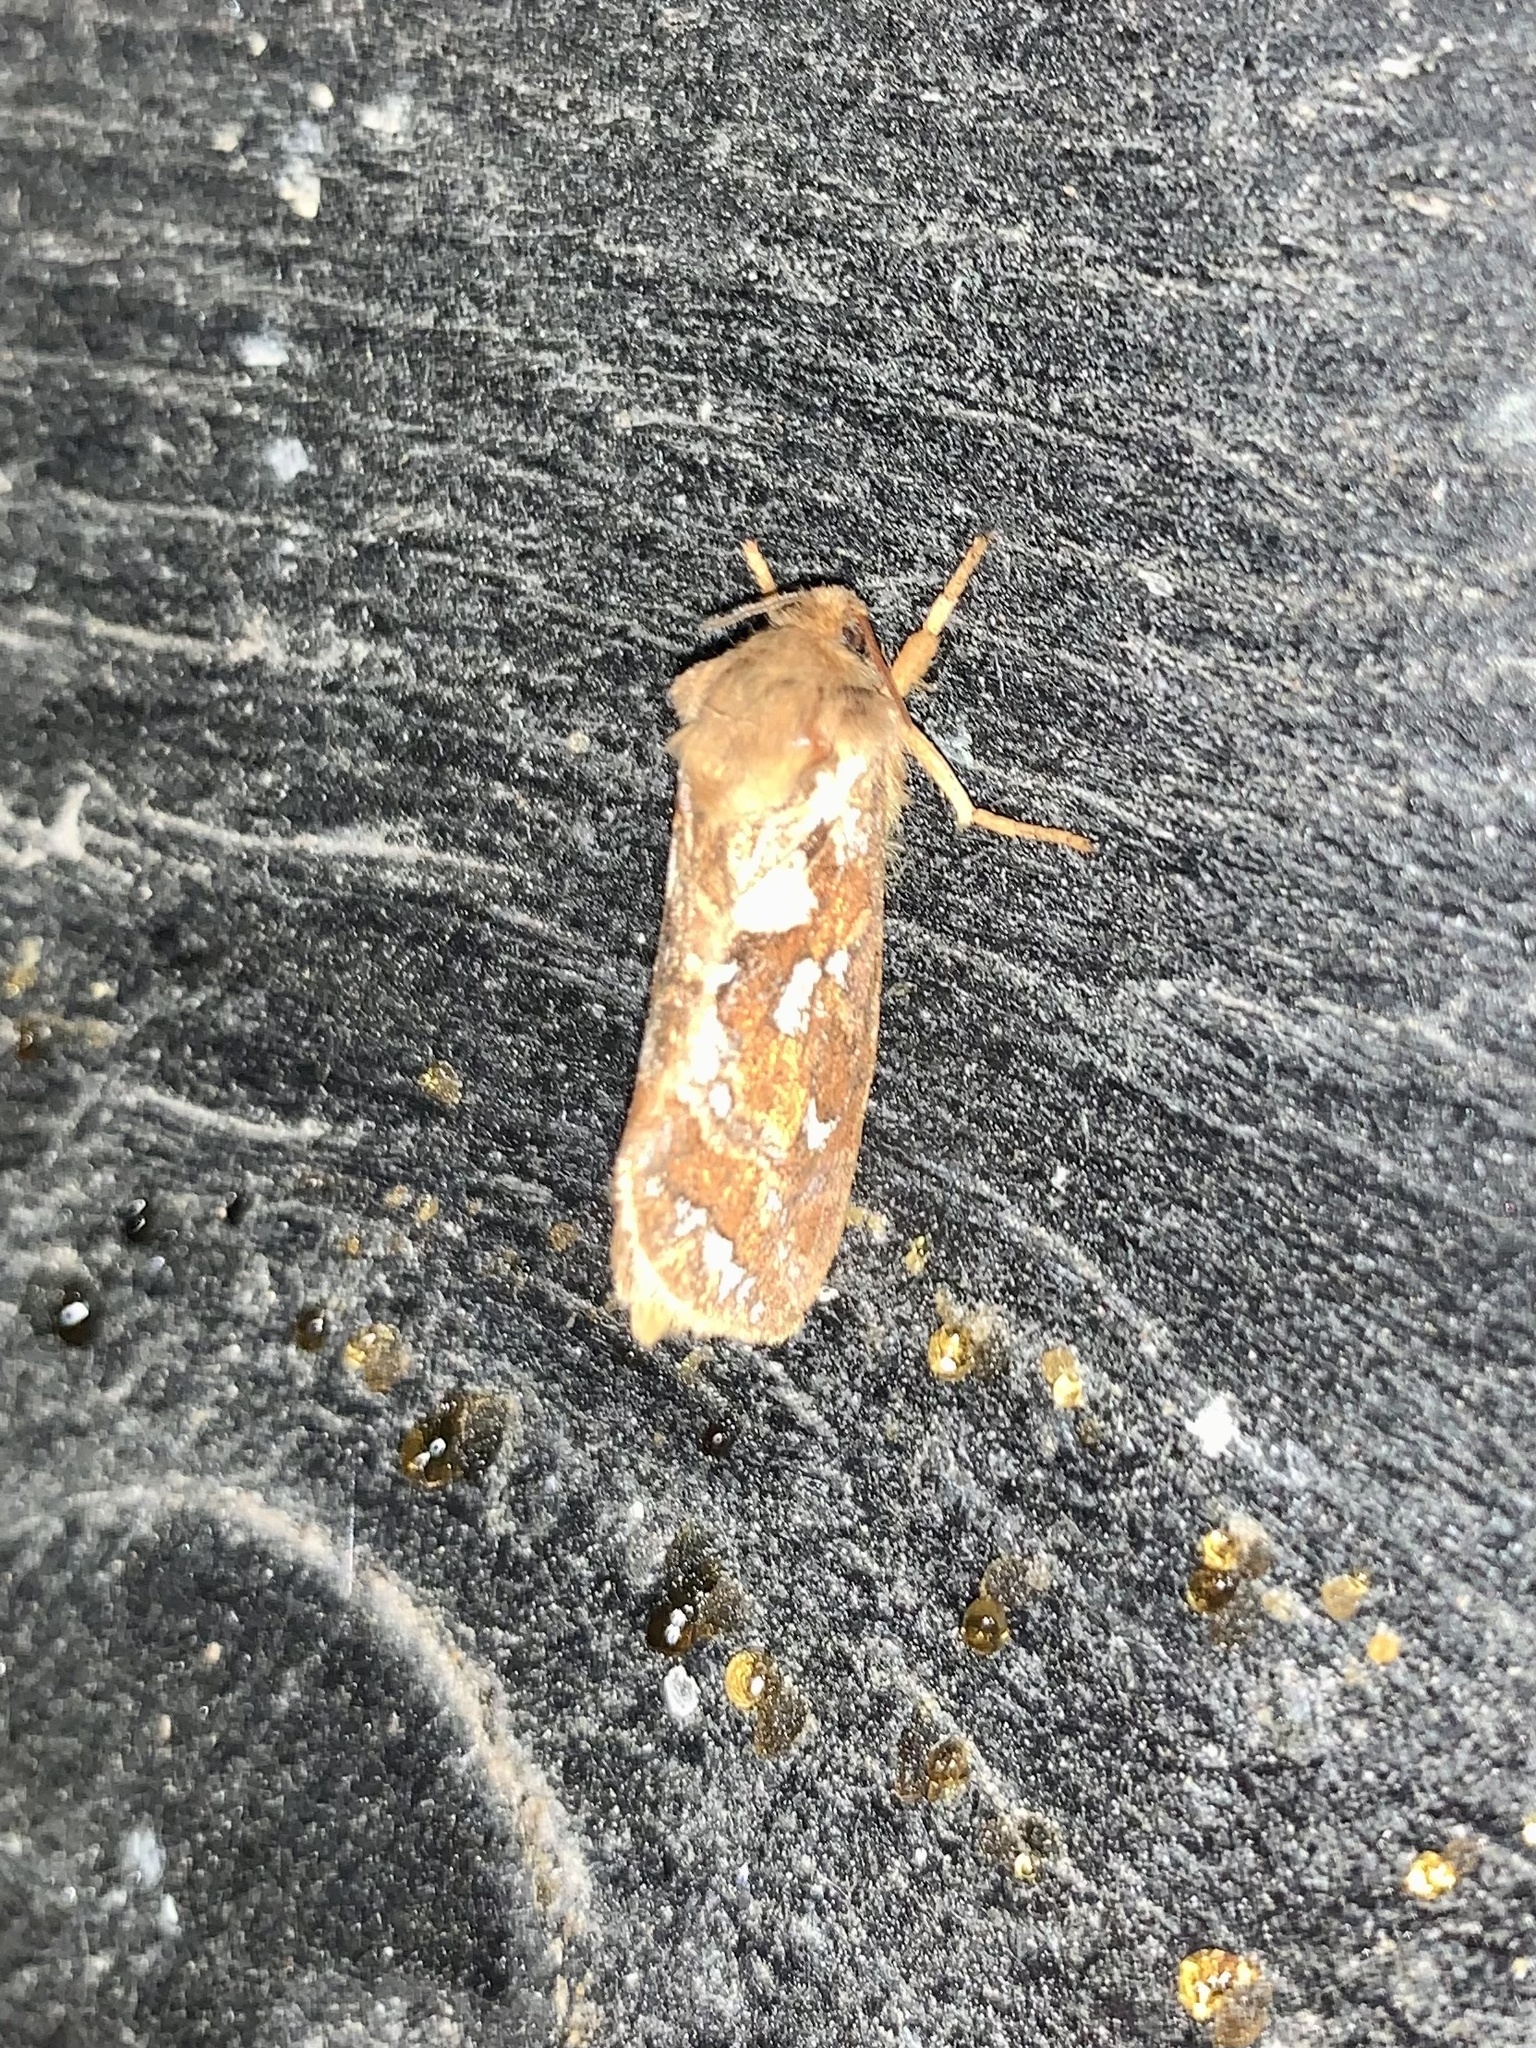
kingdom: Animalia
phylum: Arthropoda
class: Insecta
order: Lepidoptera
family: Hepialidae
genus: Korscheltellus
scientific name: Korscheltellus lupulina
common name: Common swift
